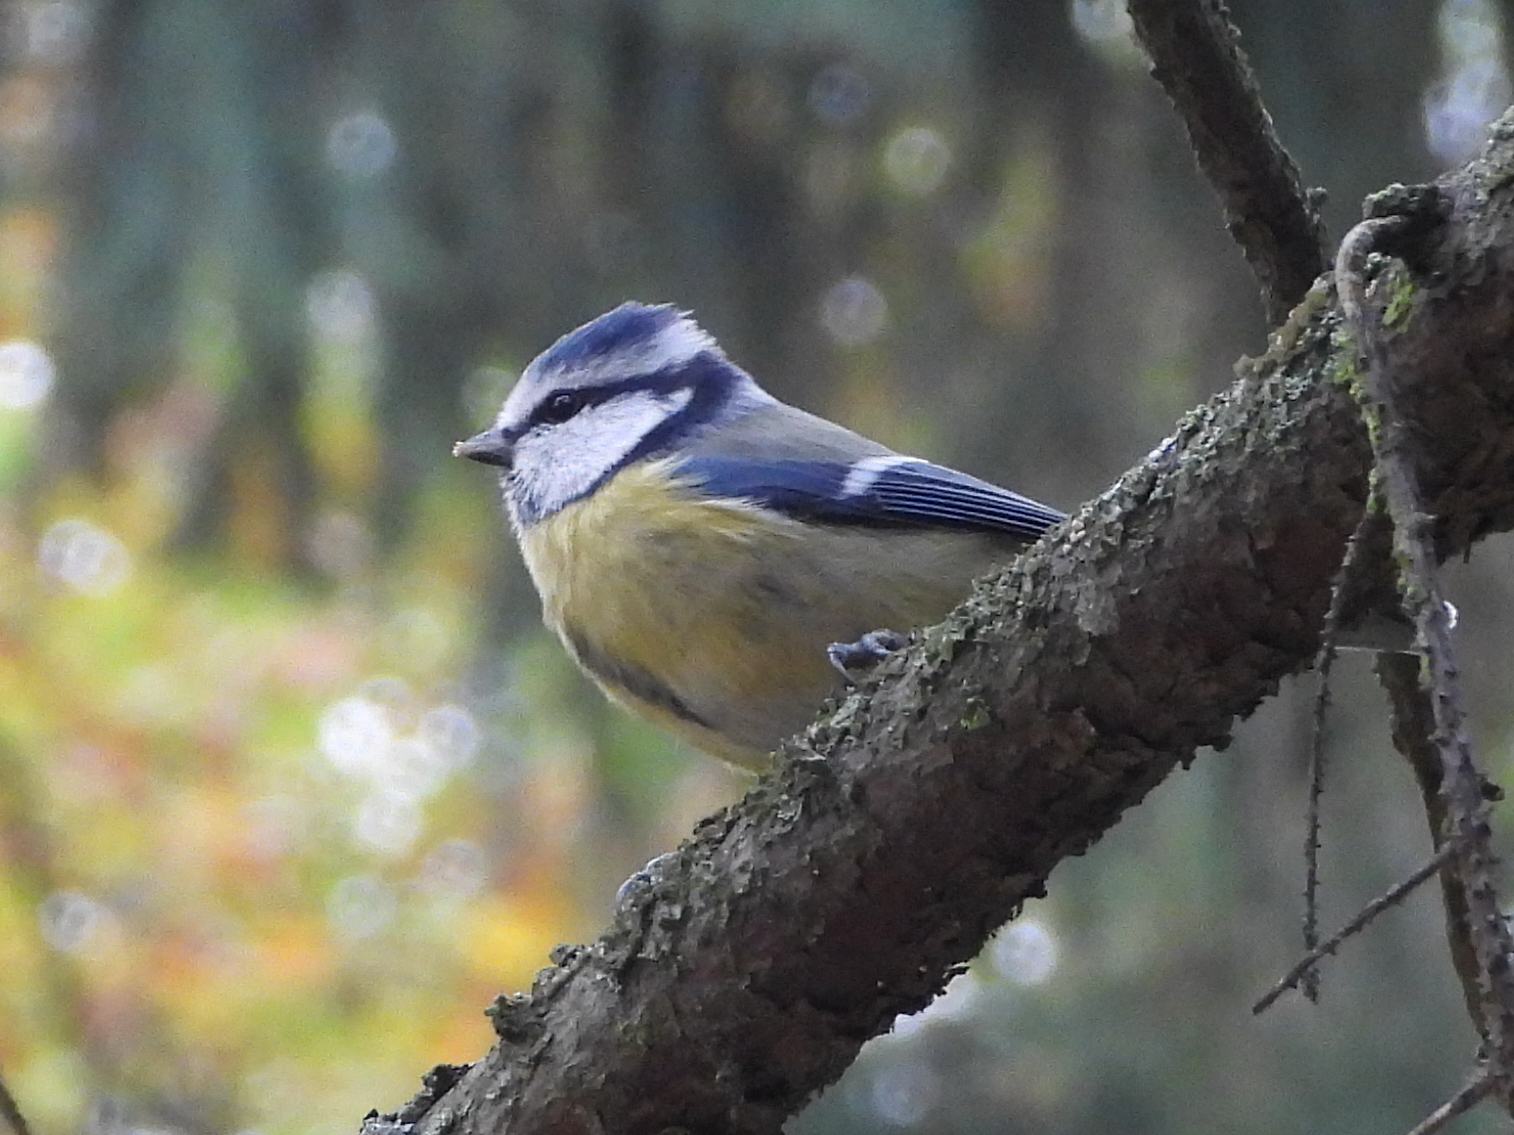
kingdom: Animalia
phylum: Chordata
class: Aves
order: Passeriformes
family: Paridae
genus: Cyanistes
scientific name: Cyanistes caeruleus
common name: Eurasian blue tit
